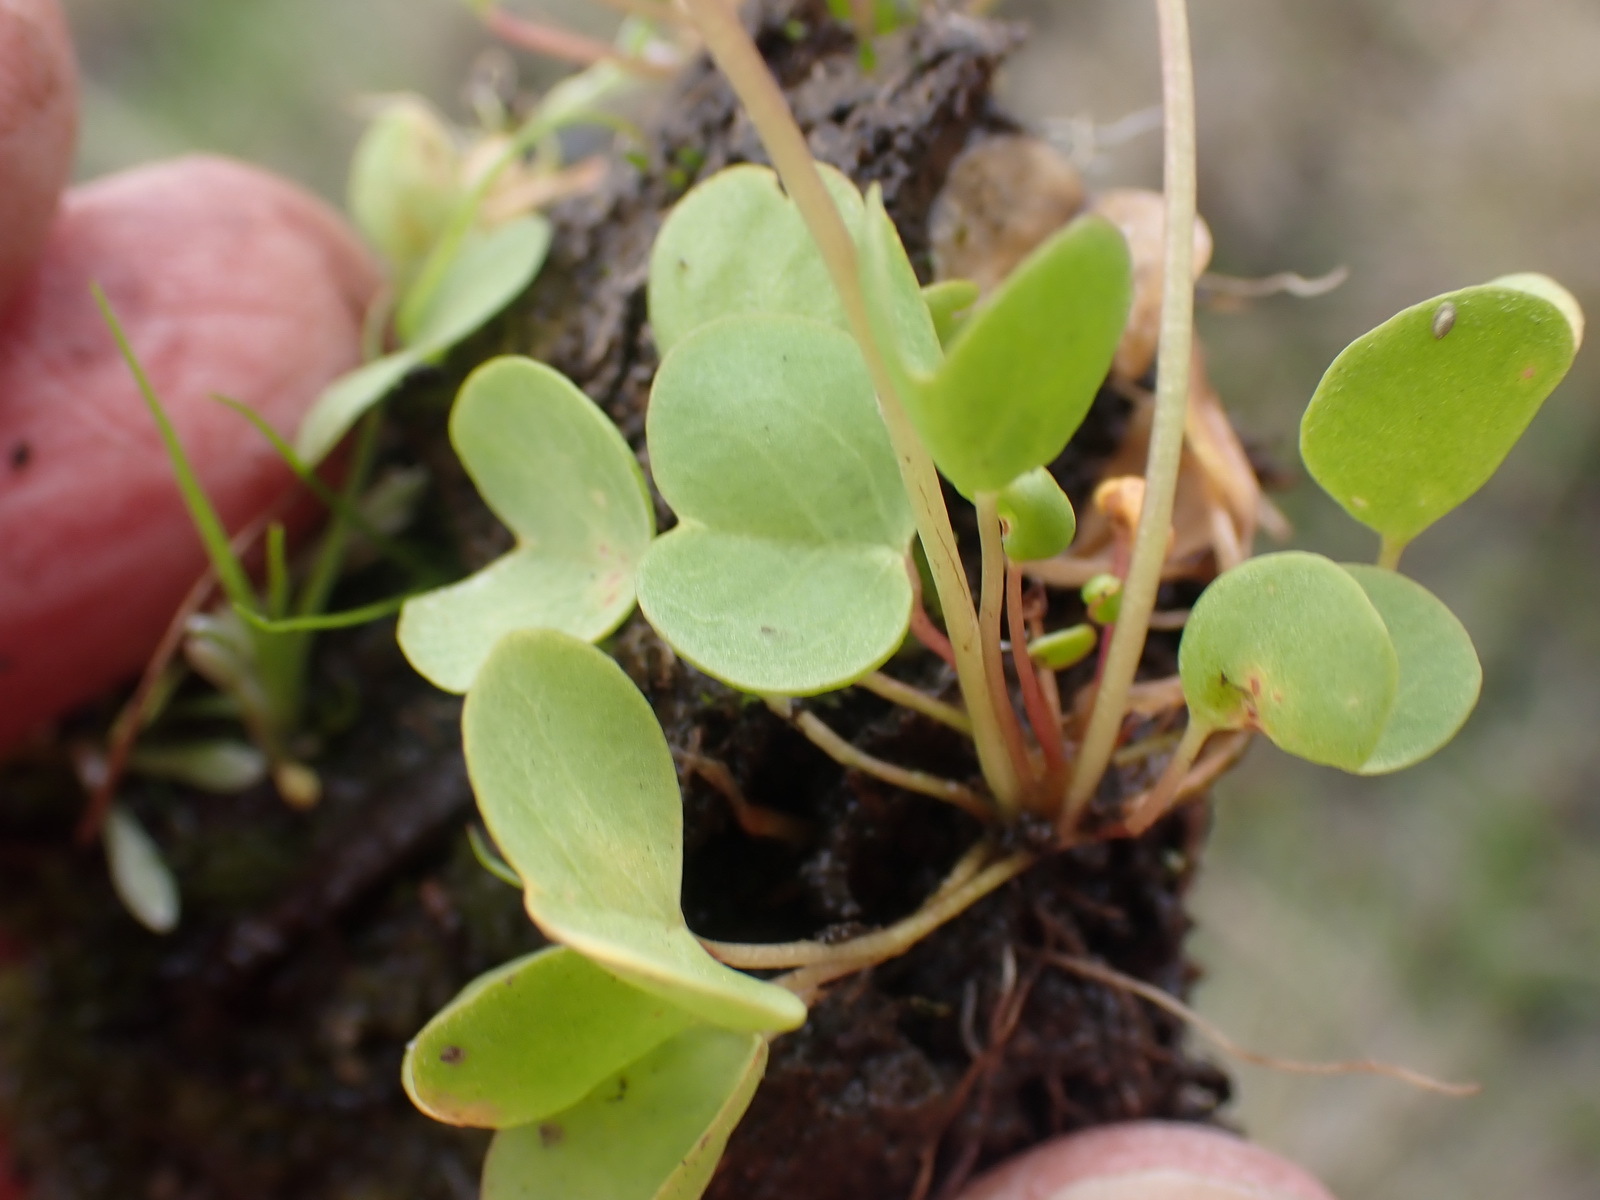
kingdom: Plantae
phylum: Tracheophyta
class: Magnoliopsida
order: Oxalidales
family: Oxalidaceae
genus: Oxalis
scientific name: Oxalis dregei
